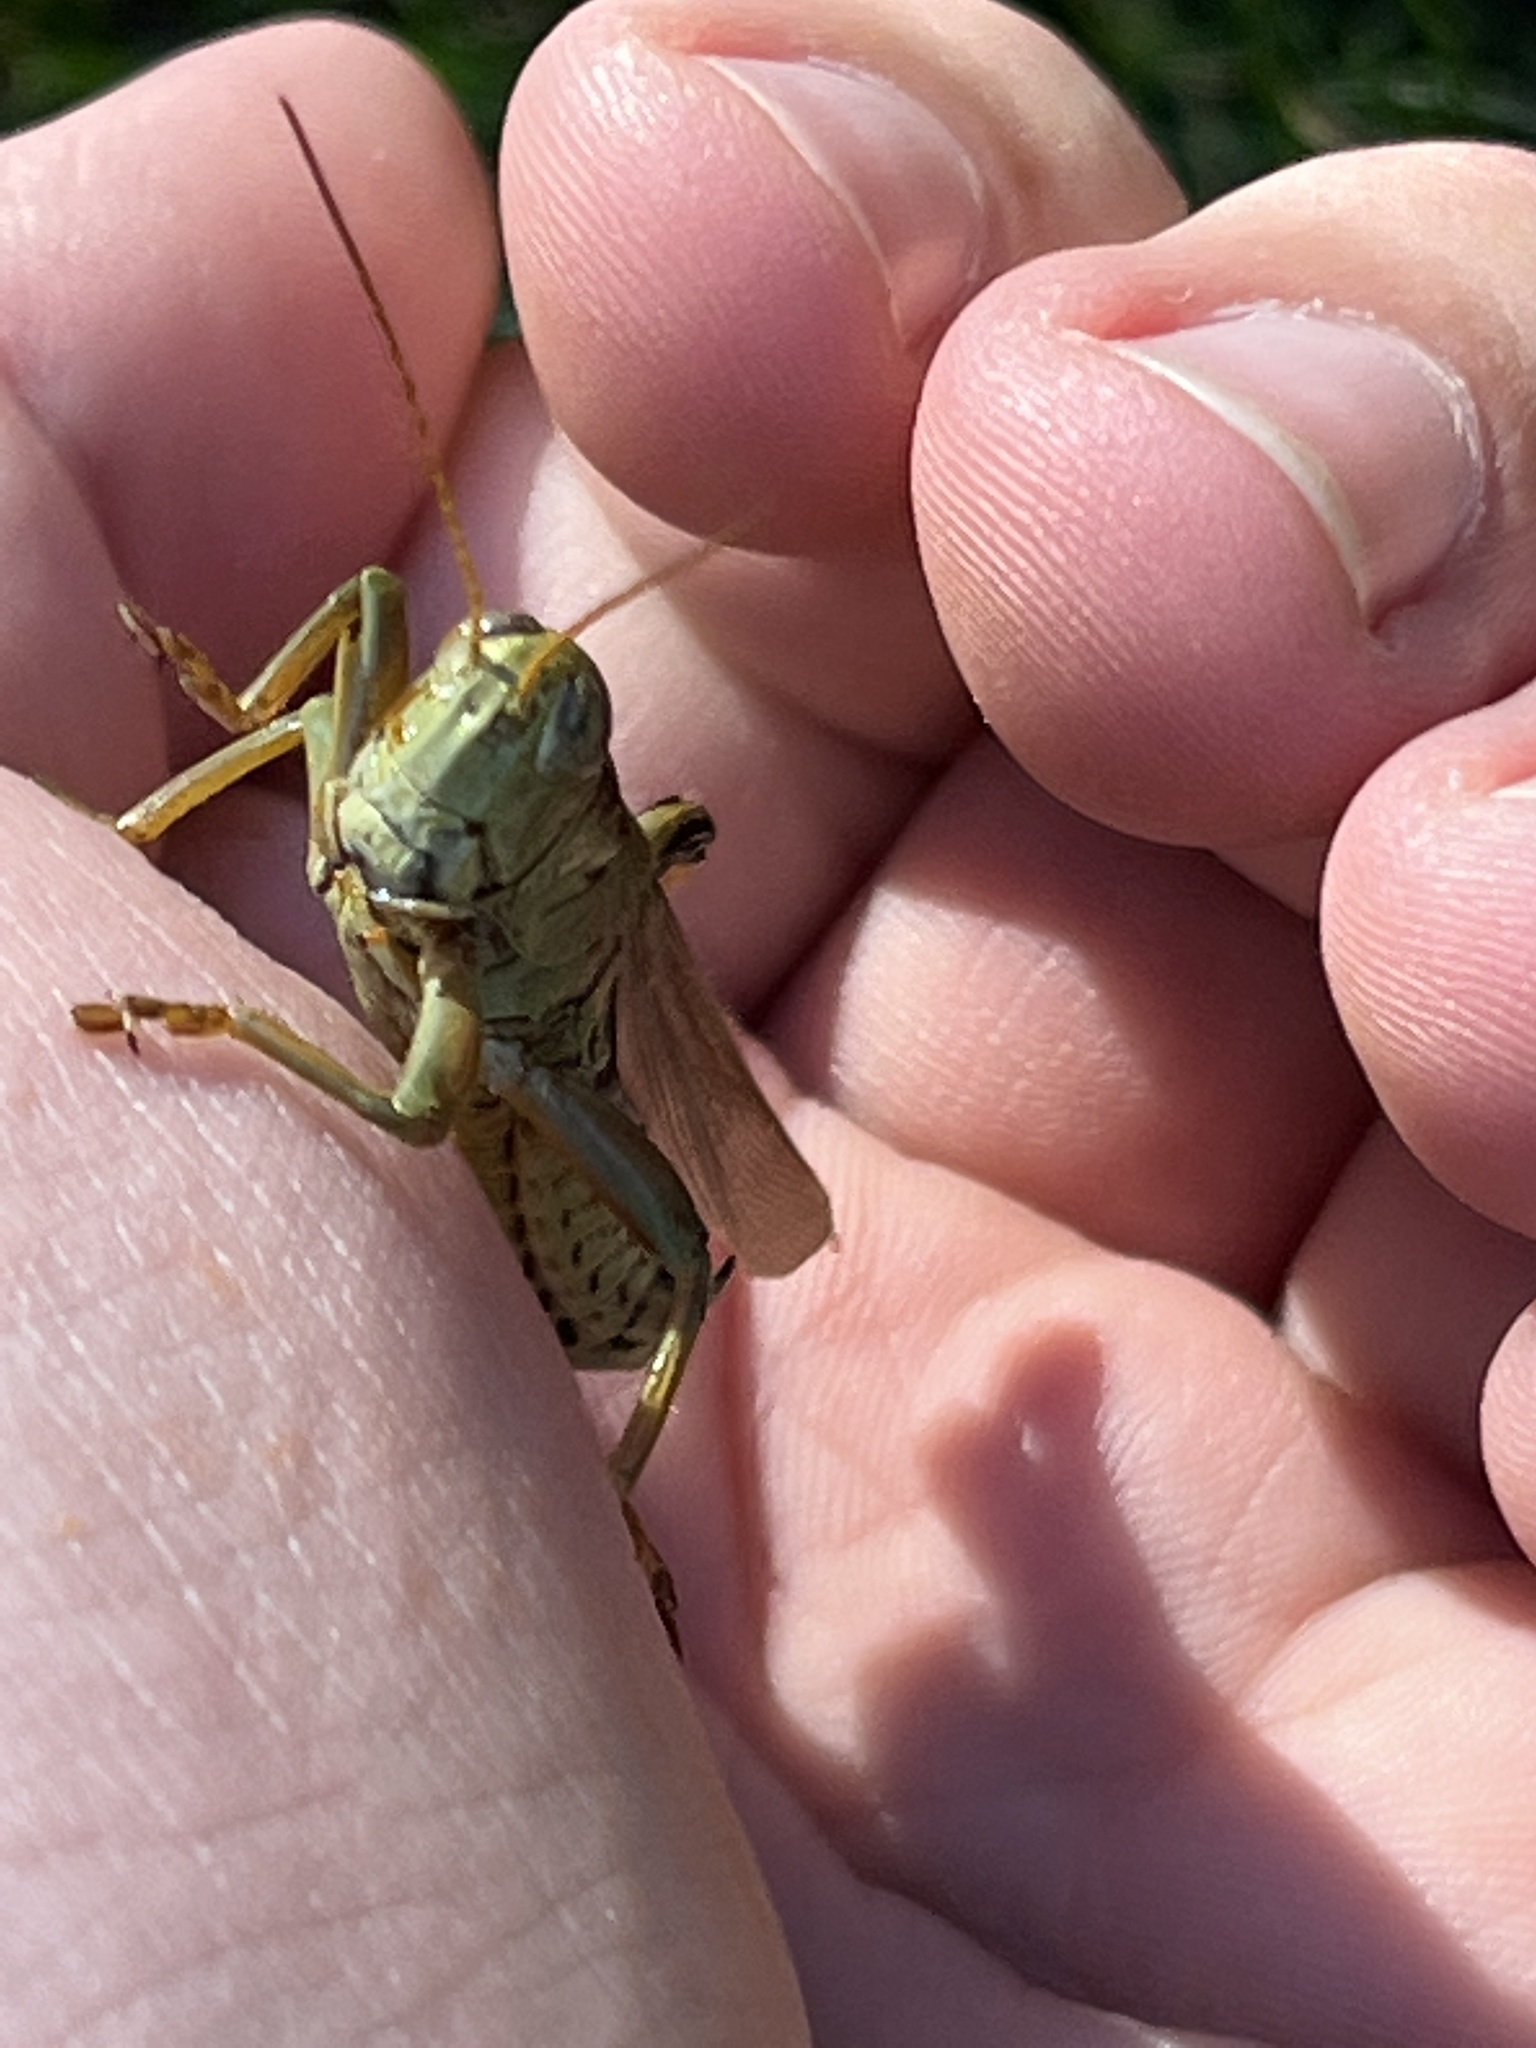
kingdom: Animalia
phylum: Arthropoda
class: Insecta
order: Orthoptera
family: Acrididae
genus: Melanoplus
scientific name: Melanoplus differentialis
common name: Differential grasshopper
